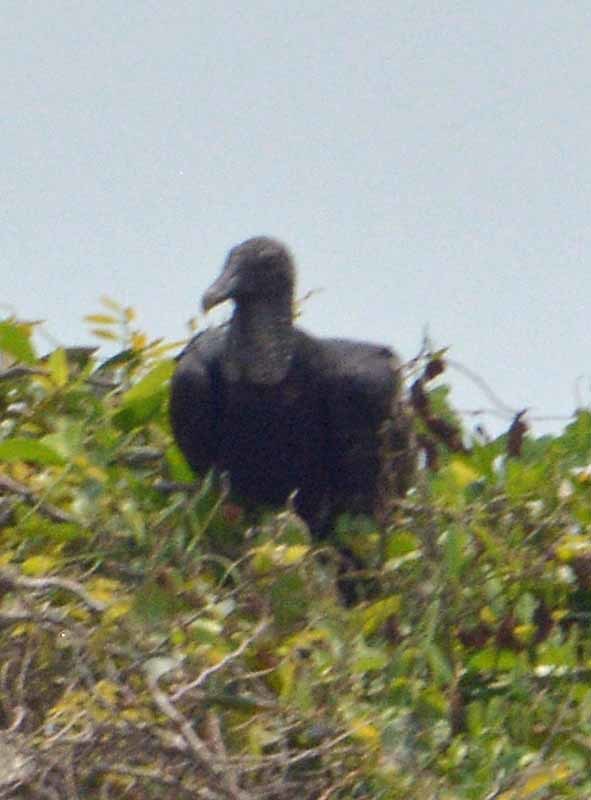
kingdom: Animalia
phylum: Chordata
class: Aves
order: Accipitriformes
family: Cathartidae
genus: Coragyps
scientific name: Coragyps atratus
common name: Black vulture
